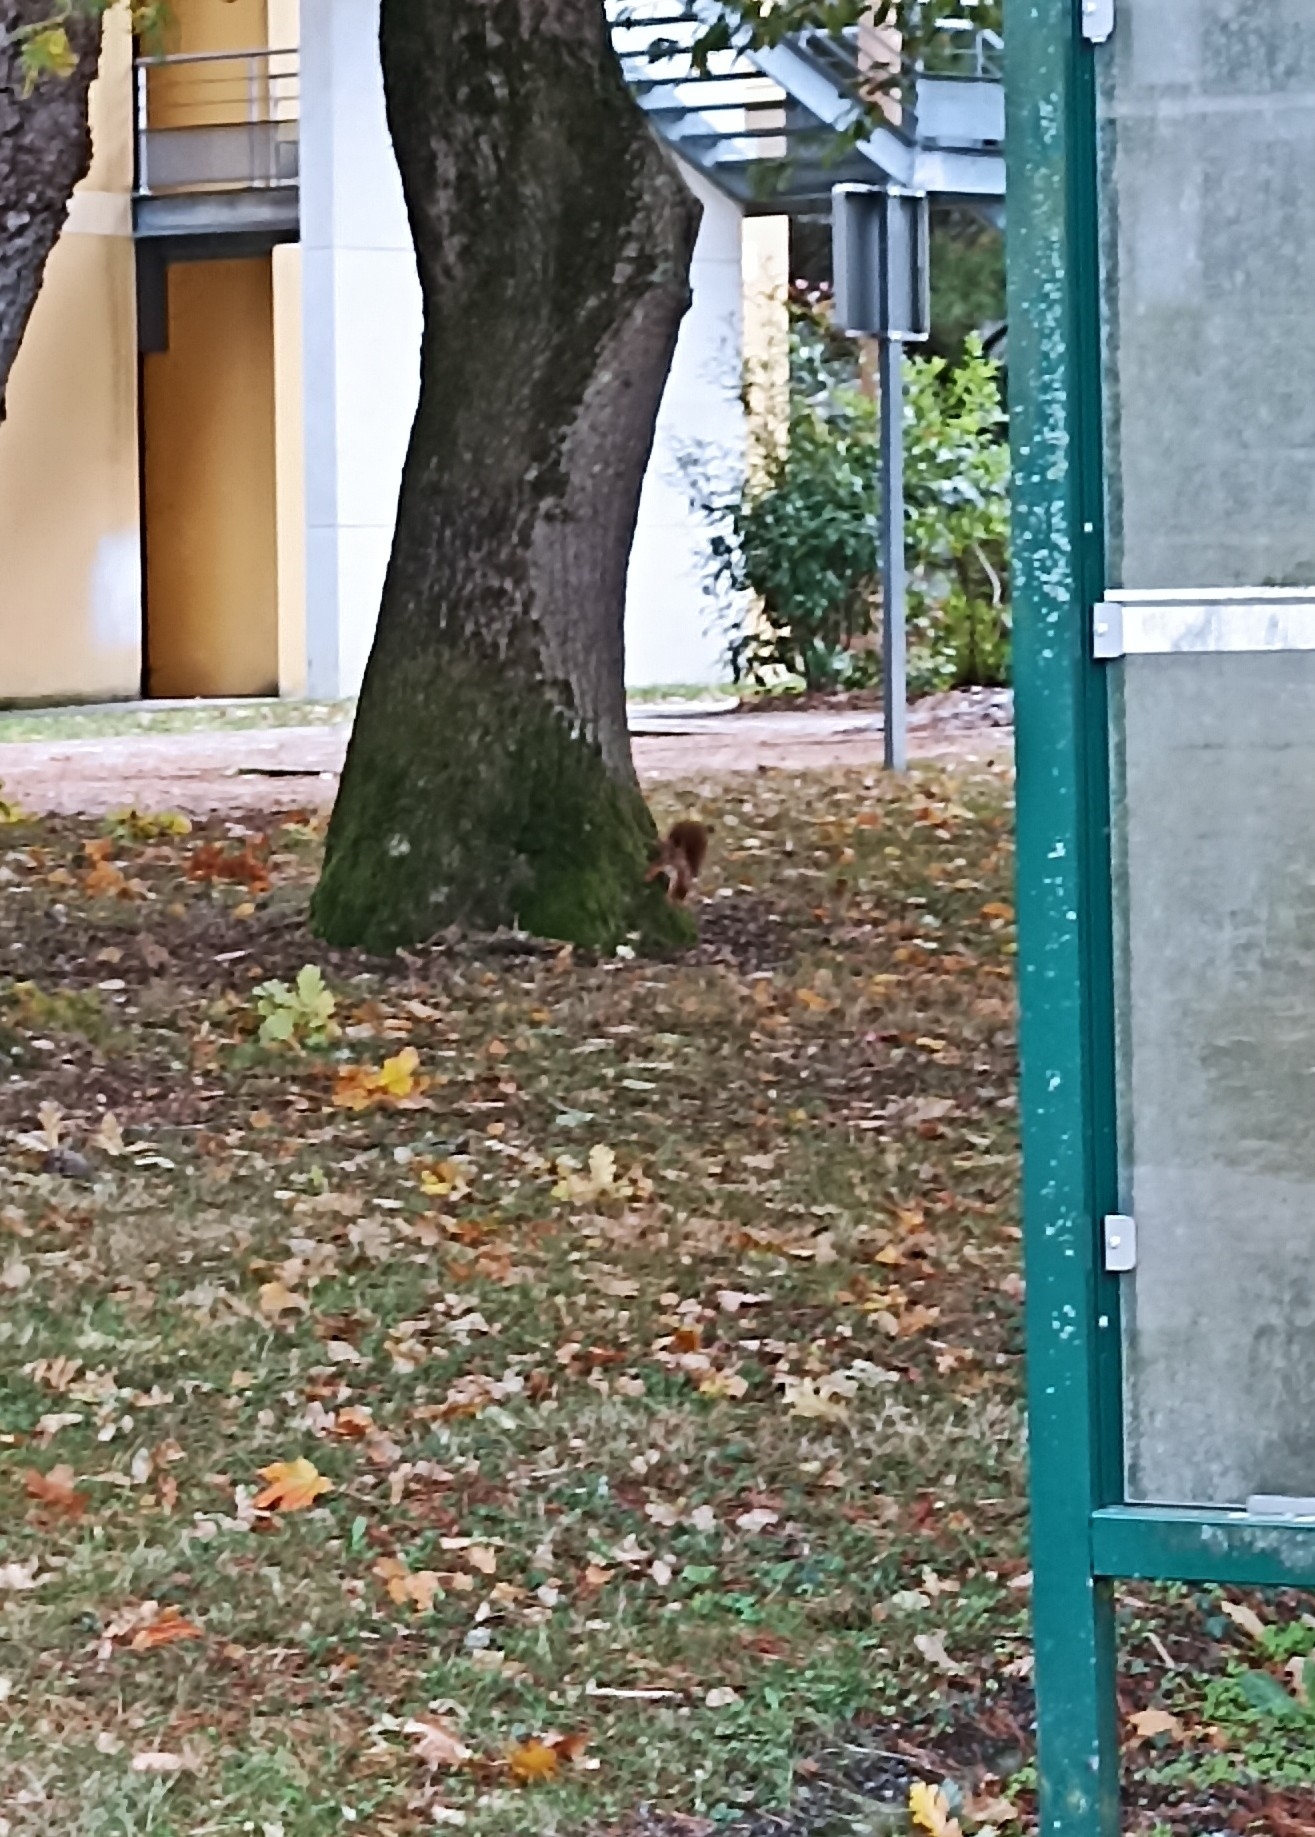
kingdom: Animalia
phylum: Chordata
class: Mammalia
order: Rodentia
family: Sciuridae
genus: Sciurus
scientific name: Sciurus vulgaris
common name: Eurasian red squirrel
